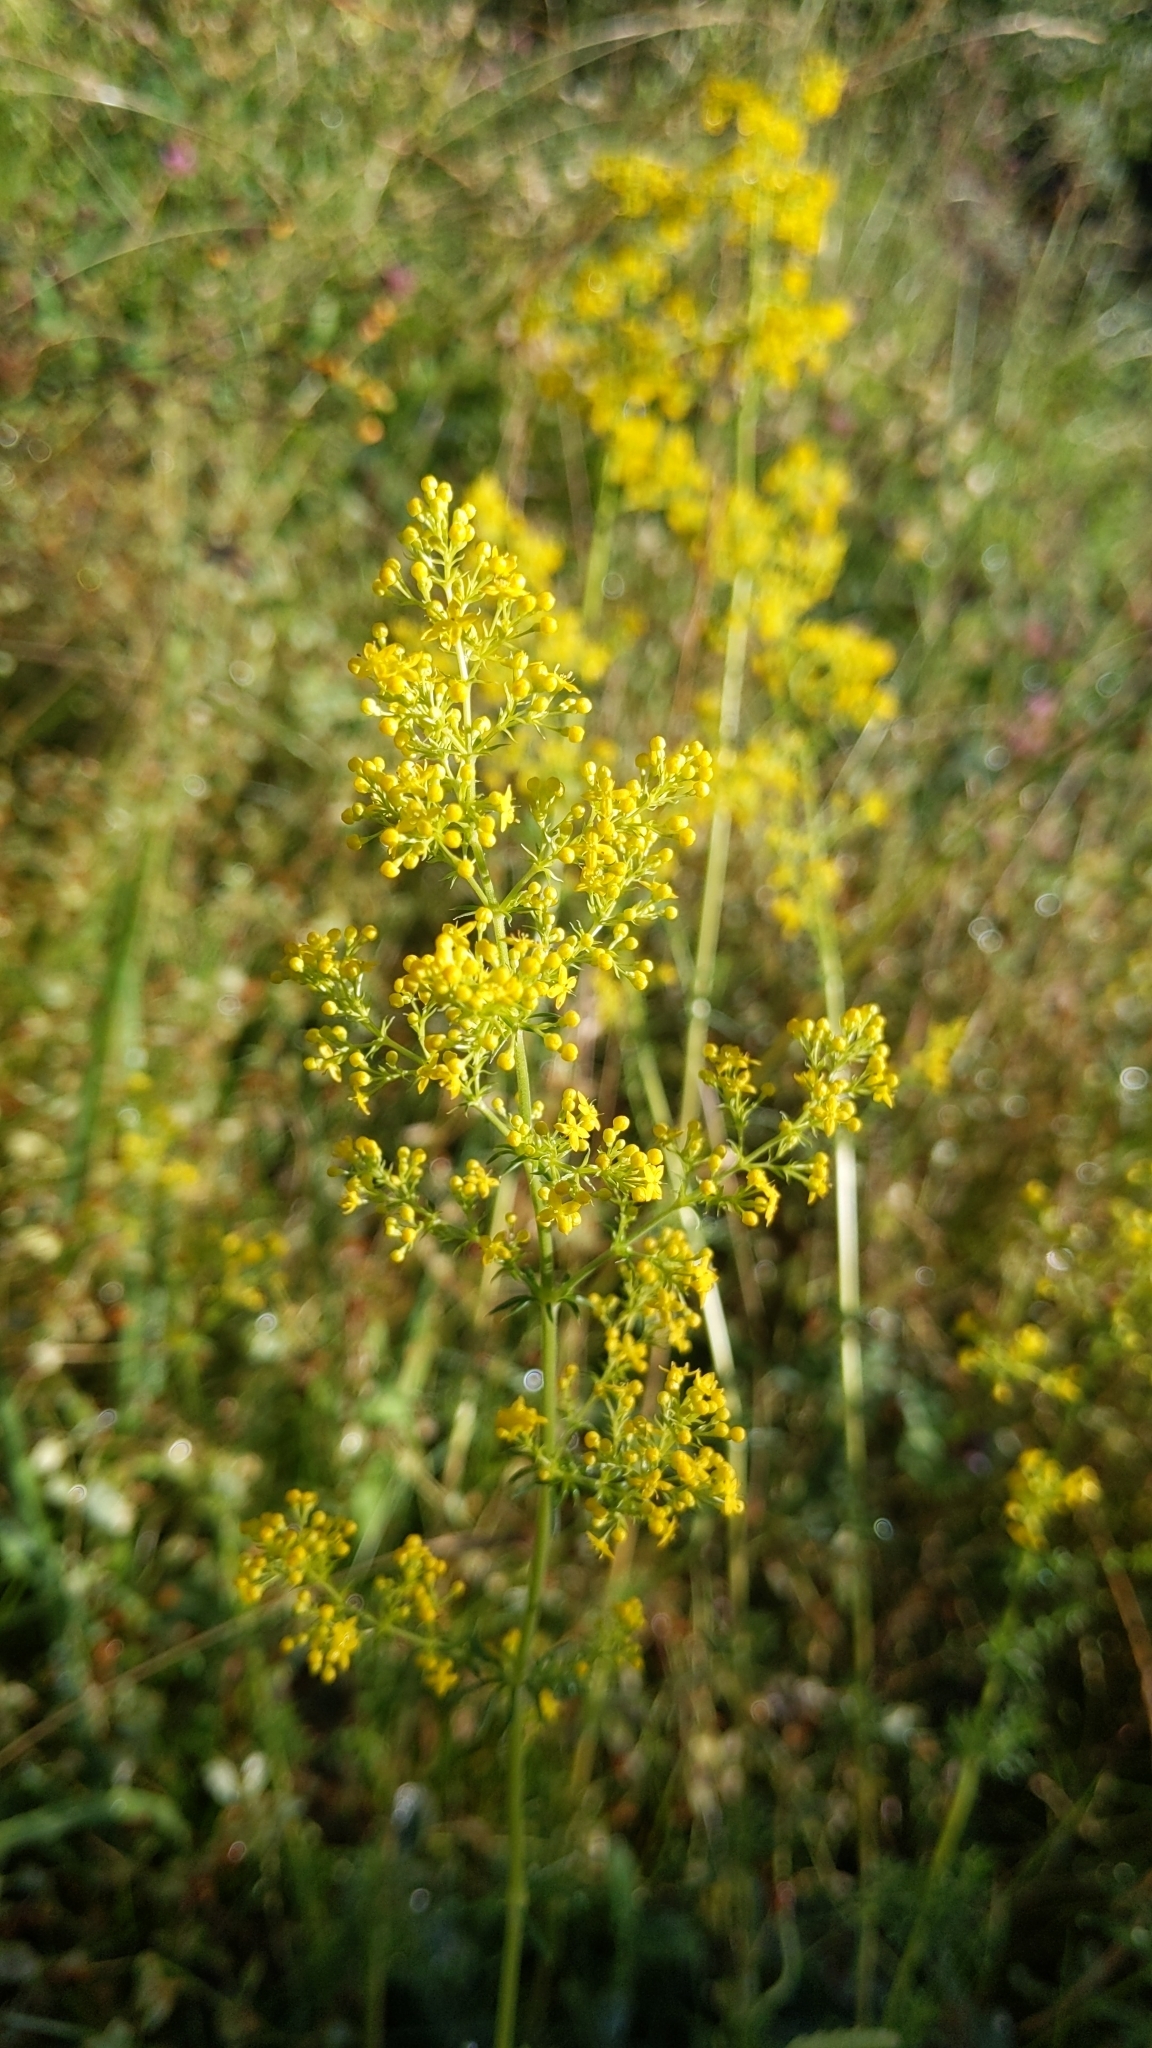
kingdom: Plantae
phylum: Tracheophyta
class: Magnoliopsida
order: Gentianales
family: Rubiaceae
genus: Galium
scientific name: Galium verum
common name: Lady's bedstraw
